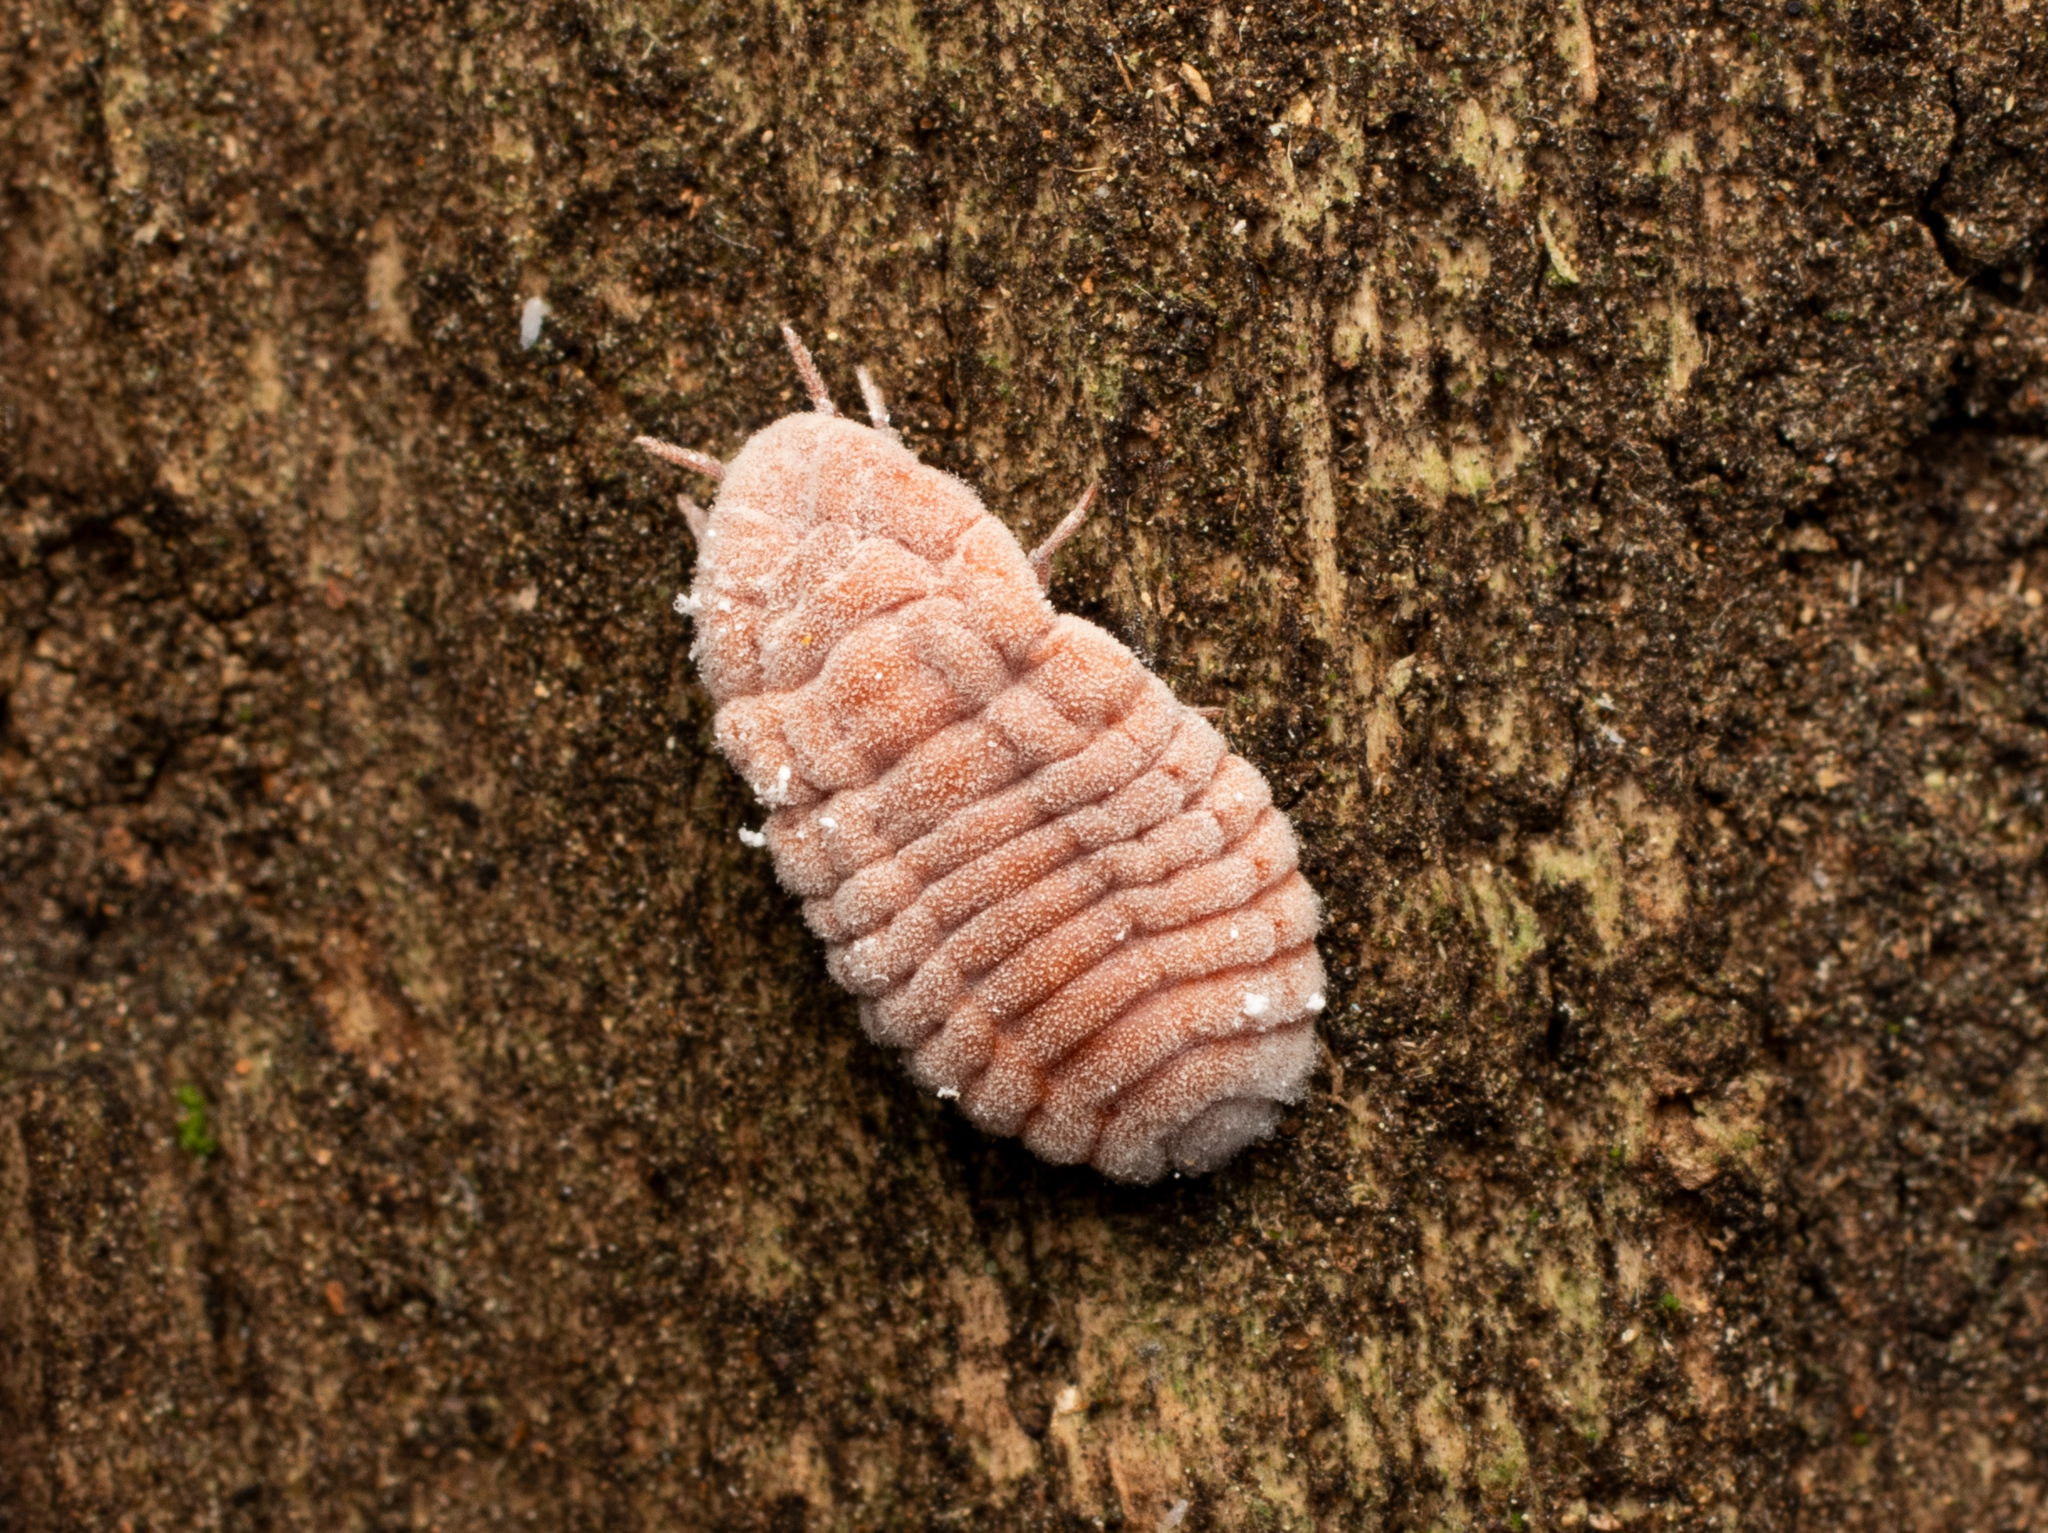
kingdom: Animalia
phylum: Arthropoda
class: Insecta
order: Hemiptera
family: Margarodidae
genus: Coelostomidia
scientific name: Coelostomidia zealandica
